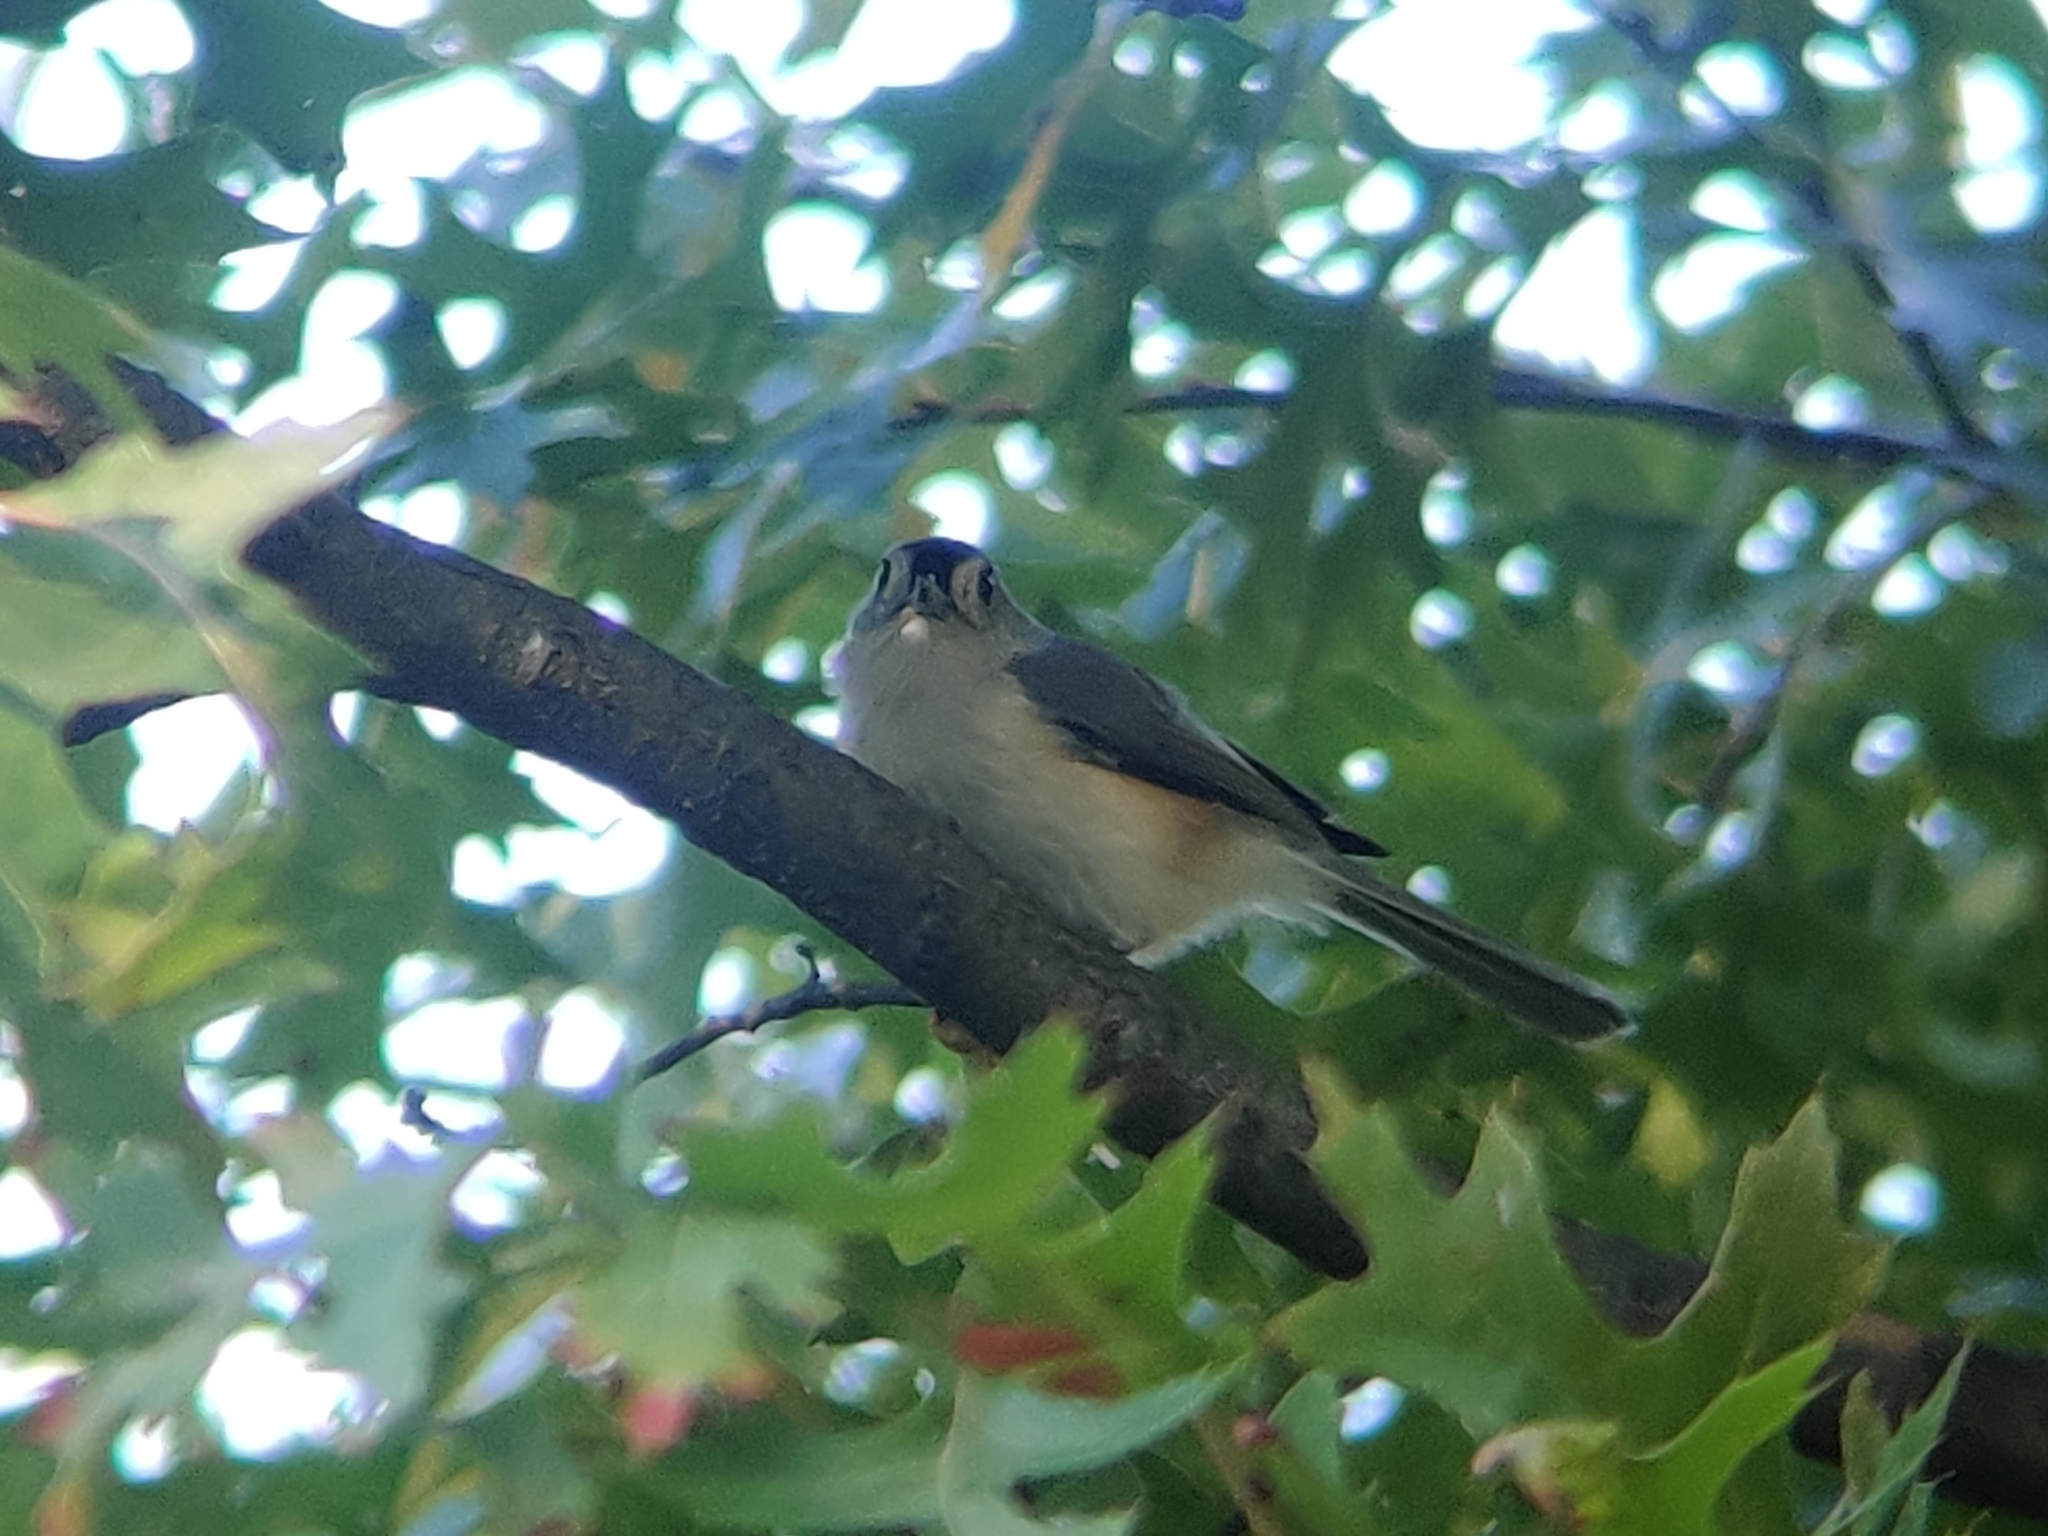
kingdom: Animalia
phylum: Chordata
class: Aves
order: Passeriformes
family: Paridae
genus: Baeolophus
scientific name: Baeolophus bicolor
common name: Tufted titmouse
